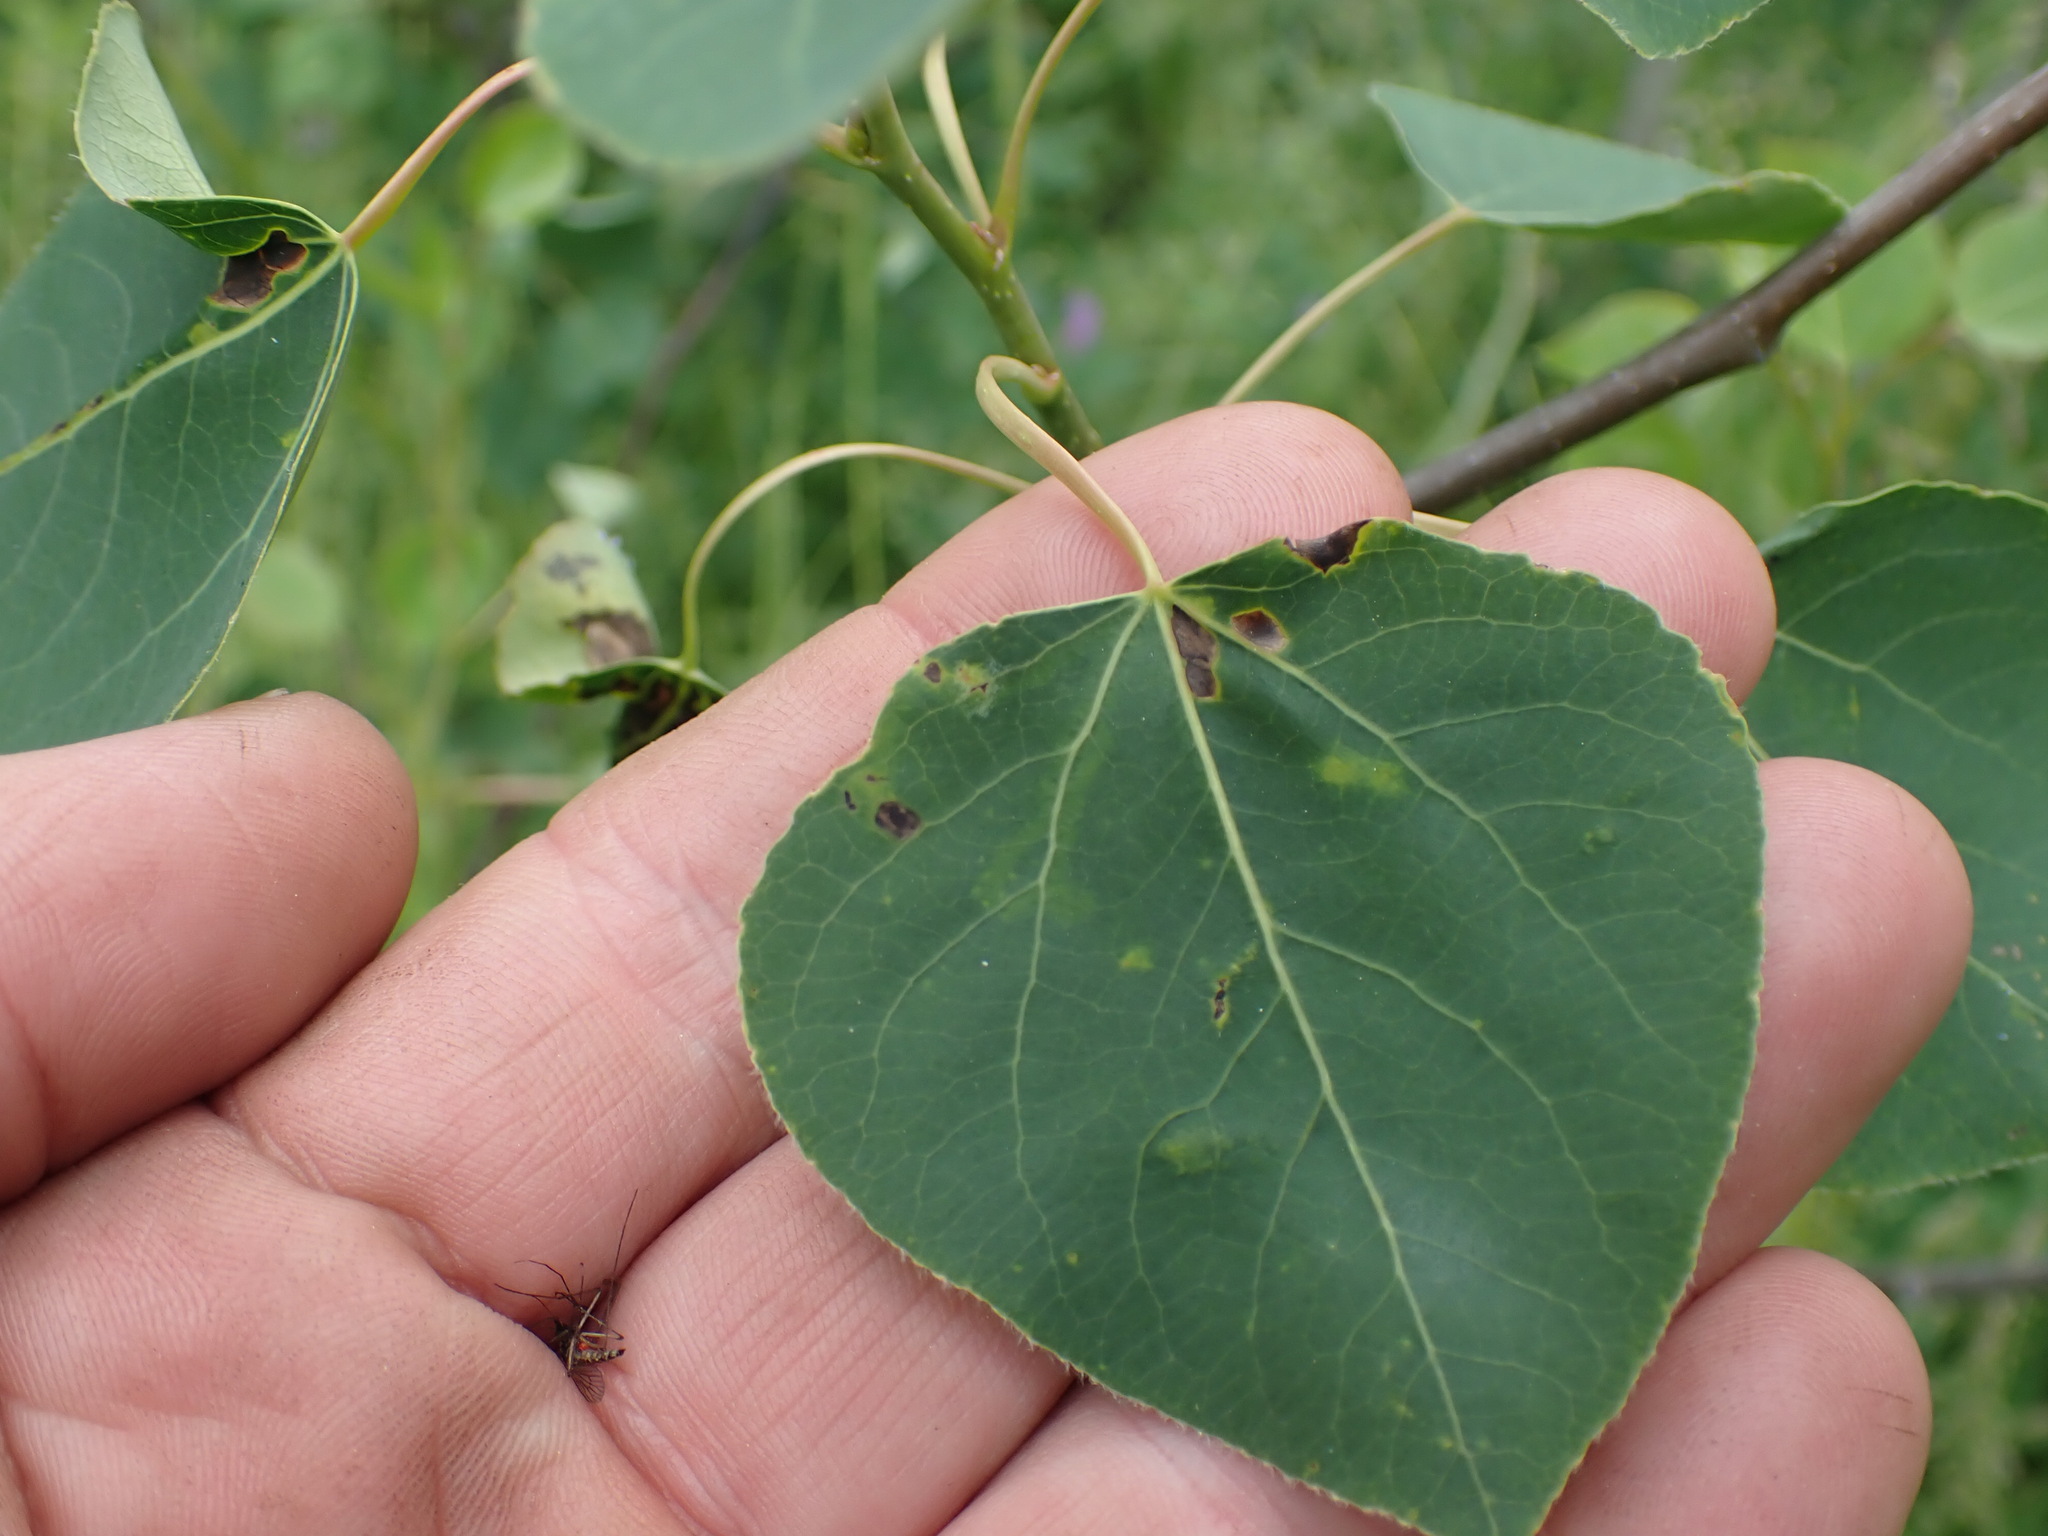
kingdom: Plantae
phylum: Tracheophyta
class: Magnoliopsida
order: Malpighiales
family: Salicaceae
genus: Populus
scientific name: Populus tremuloides
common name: Quaking aspen
